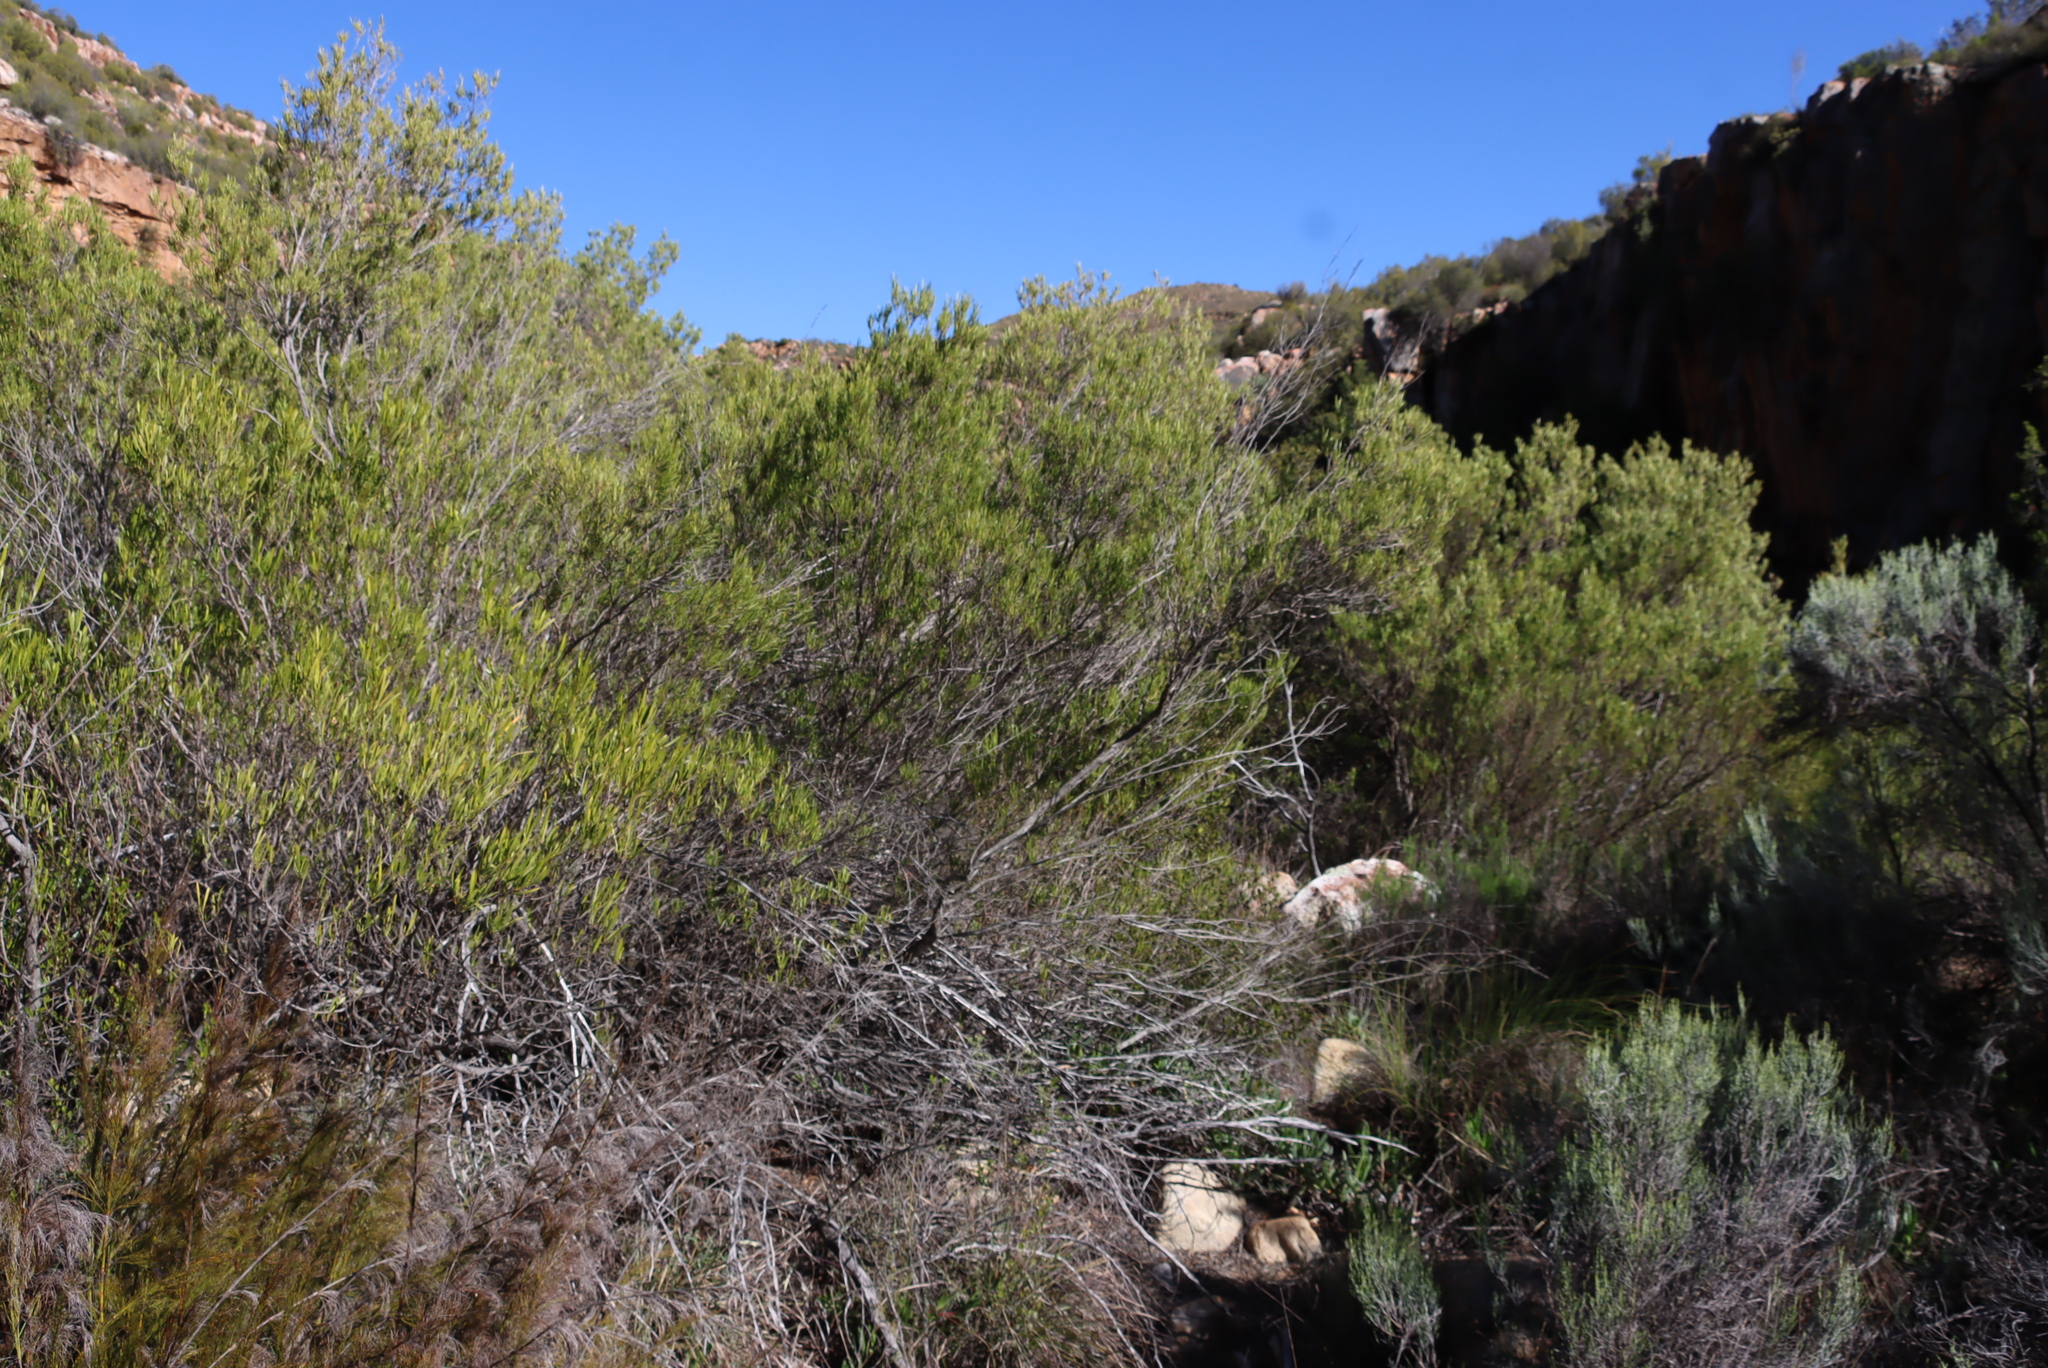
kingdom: Plantae
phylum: Tracheophyta
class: Magnoliopsida
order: Sapindales
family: Sapindaceae
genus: Dodonaea
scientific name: Dodonaea viscosa
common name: Hopbush
